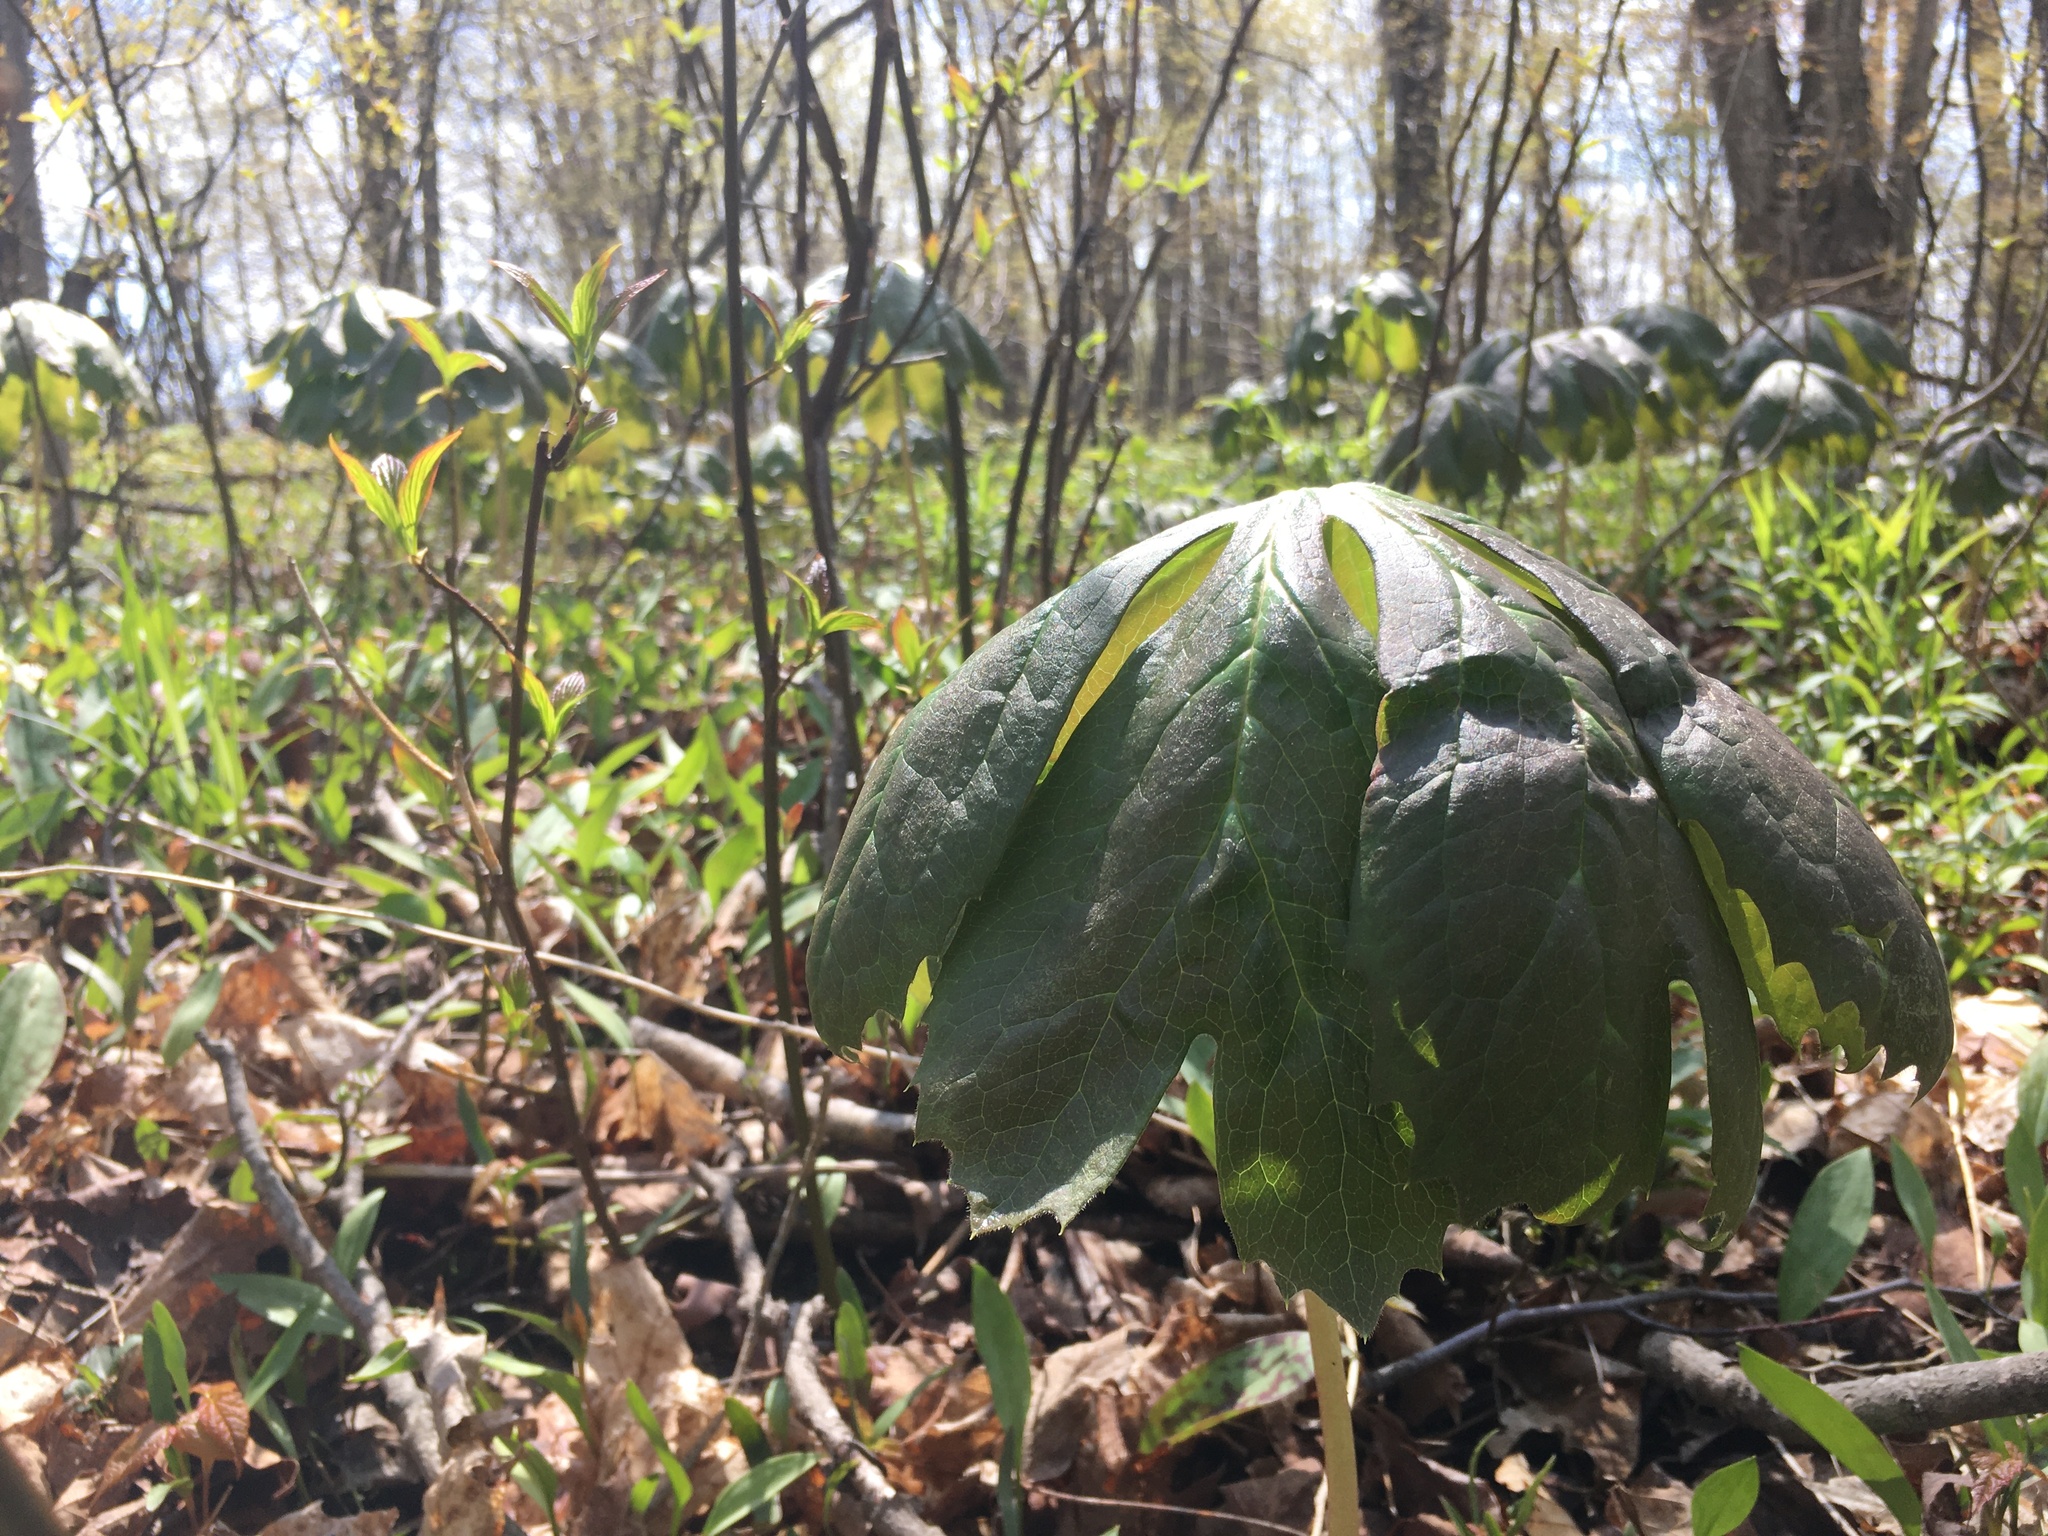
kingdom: Plantae
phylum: Tracheophyta
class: Magnoliopsida
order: Ranunculales
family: Berberidaceae
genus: Podophyllum
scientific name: Podophyllum peltatum
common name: Wild mandrake
